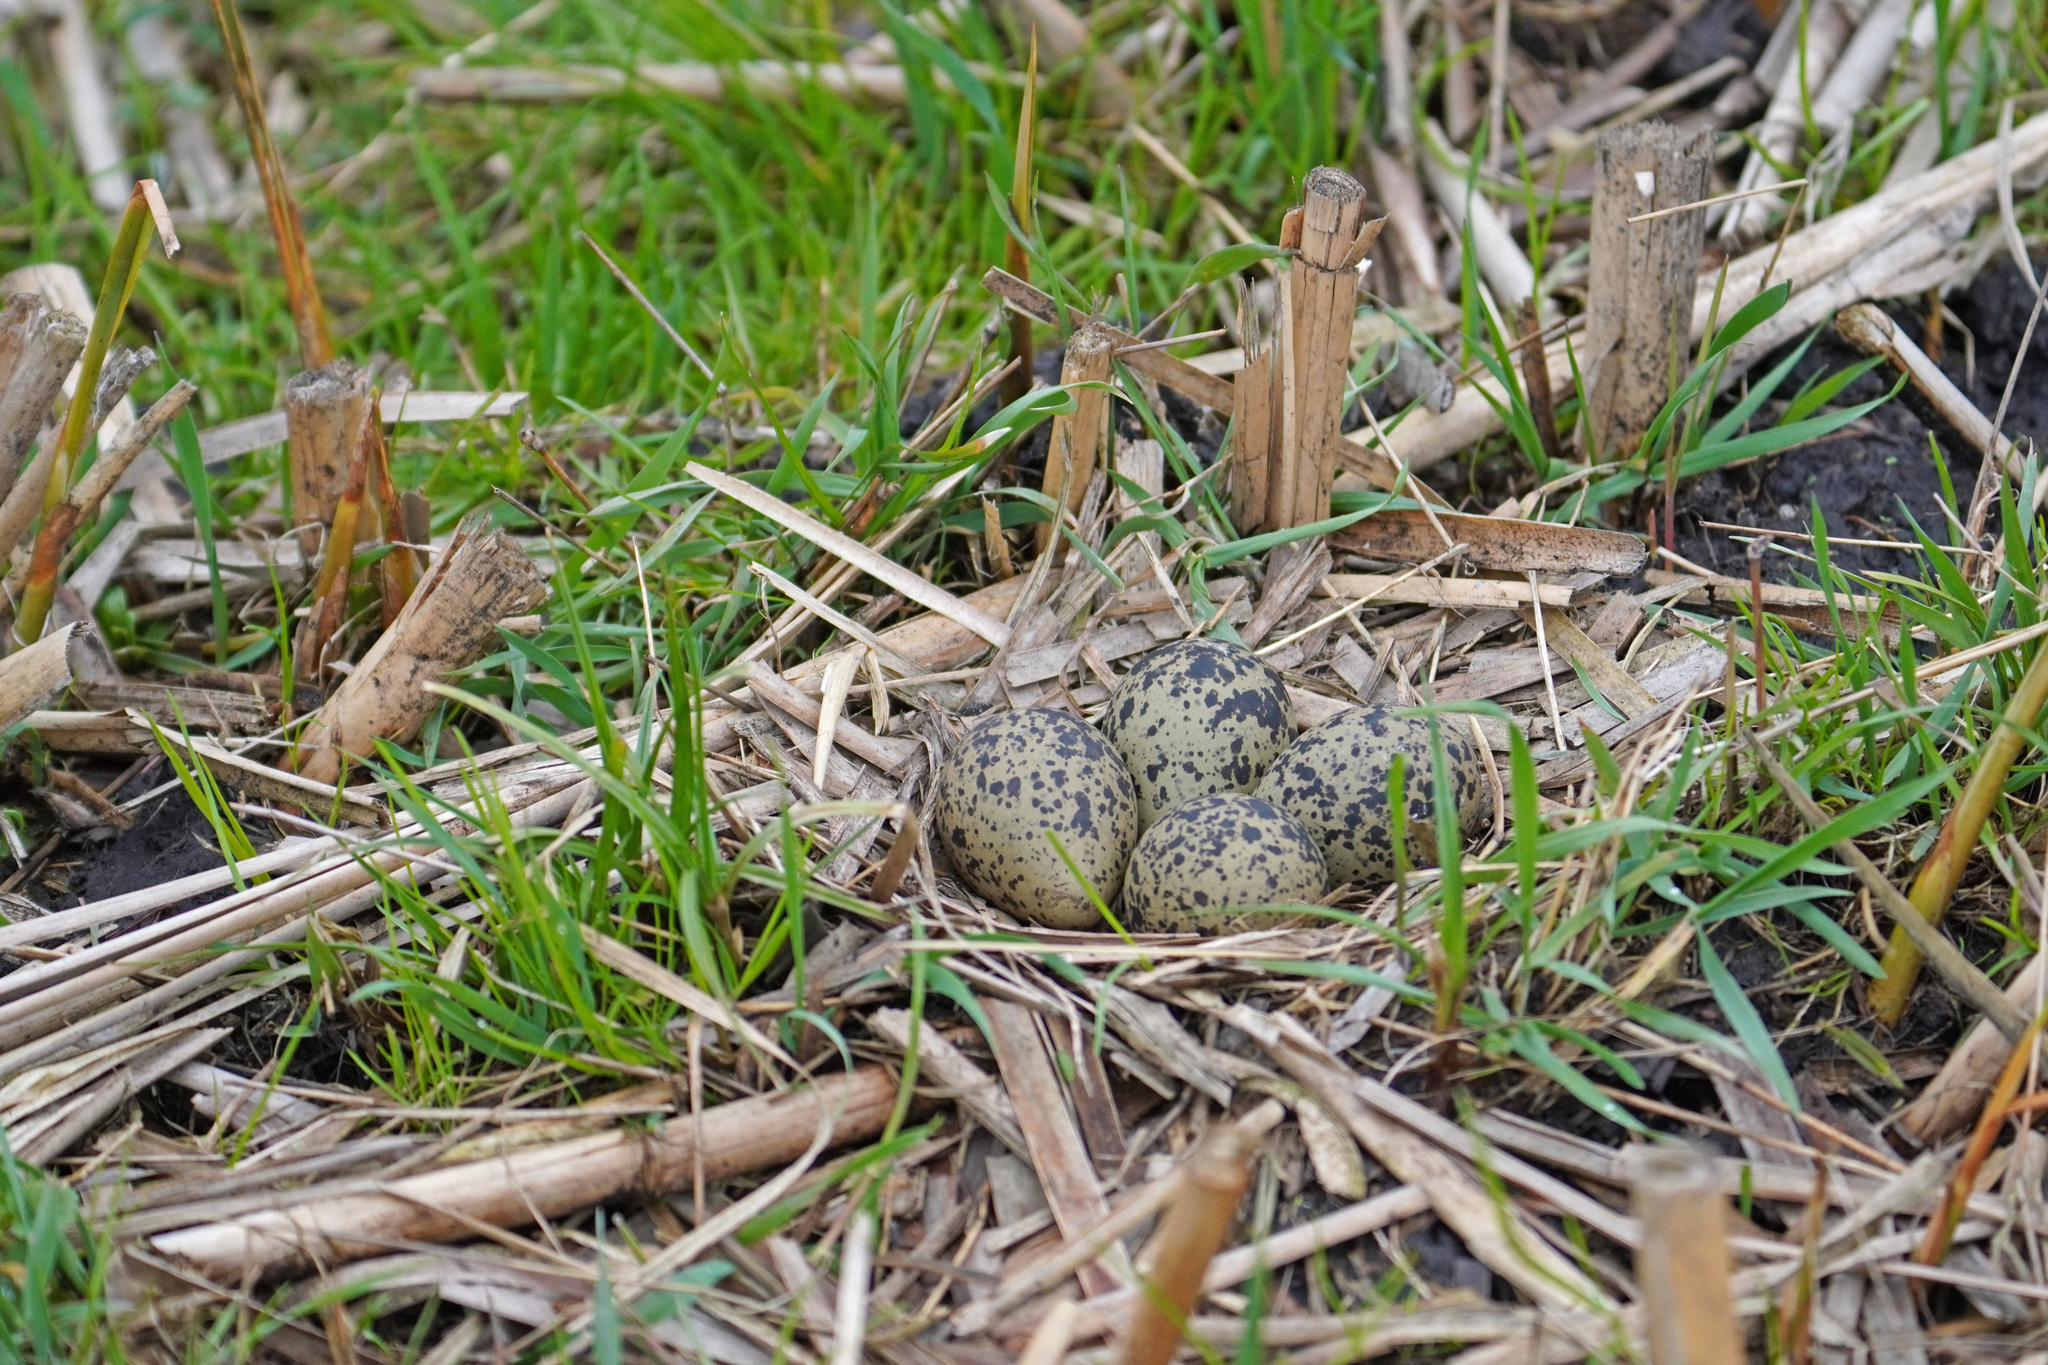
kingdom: Animalia
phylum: Chordata
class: Aves
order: Charadriiformes
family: Charadriidae
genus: Vanellus
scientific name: Vanellus vanellus
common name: Northern lapwing
